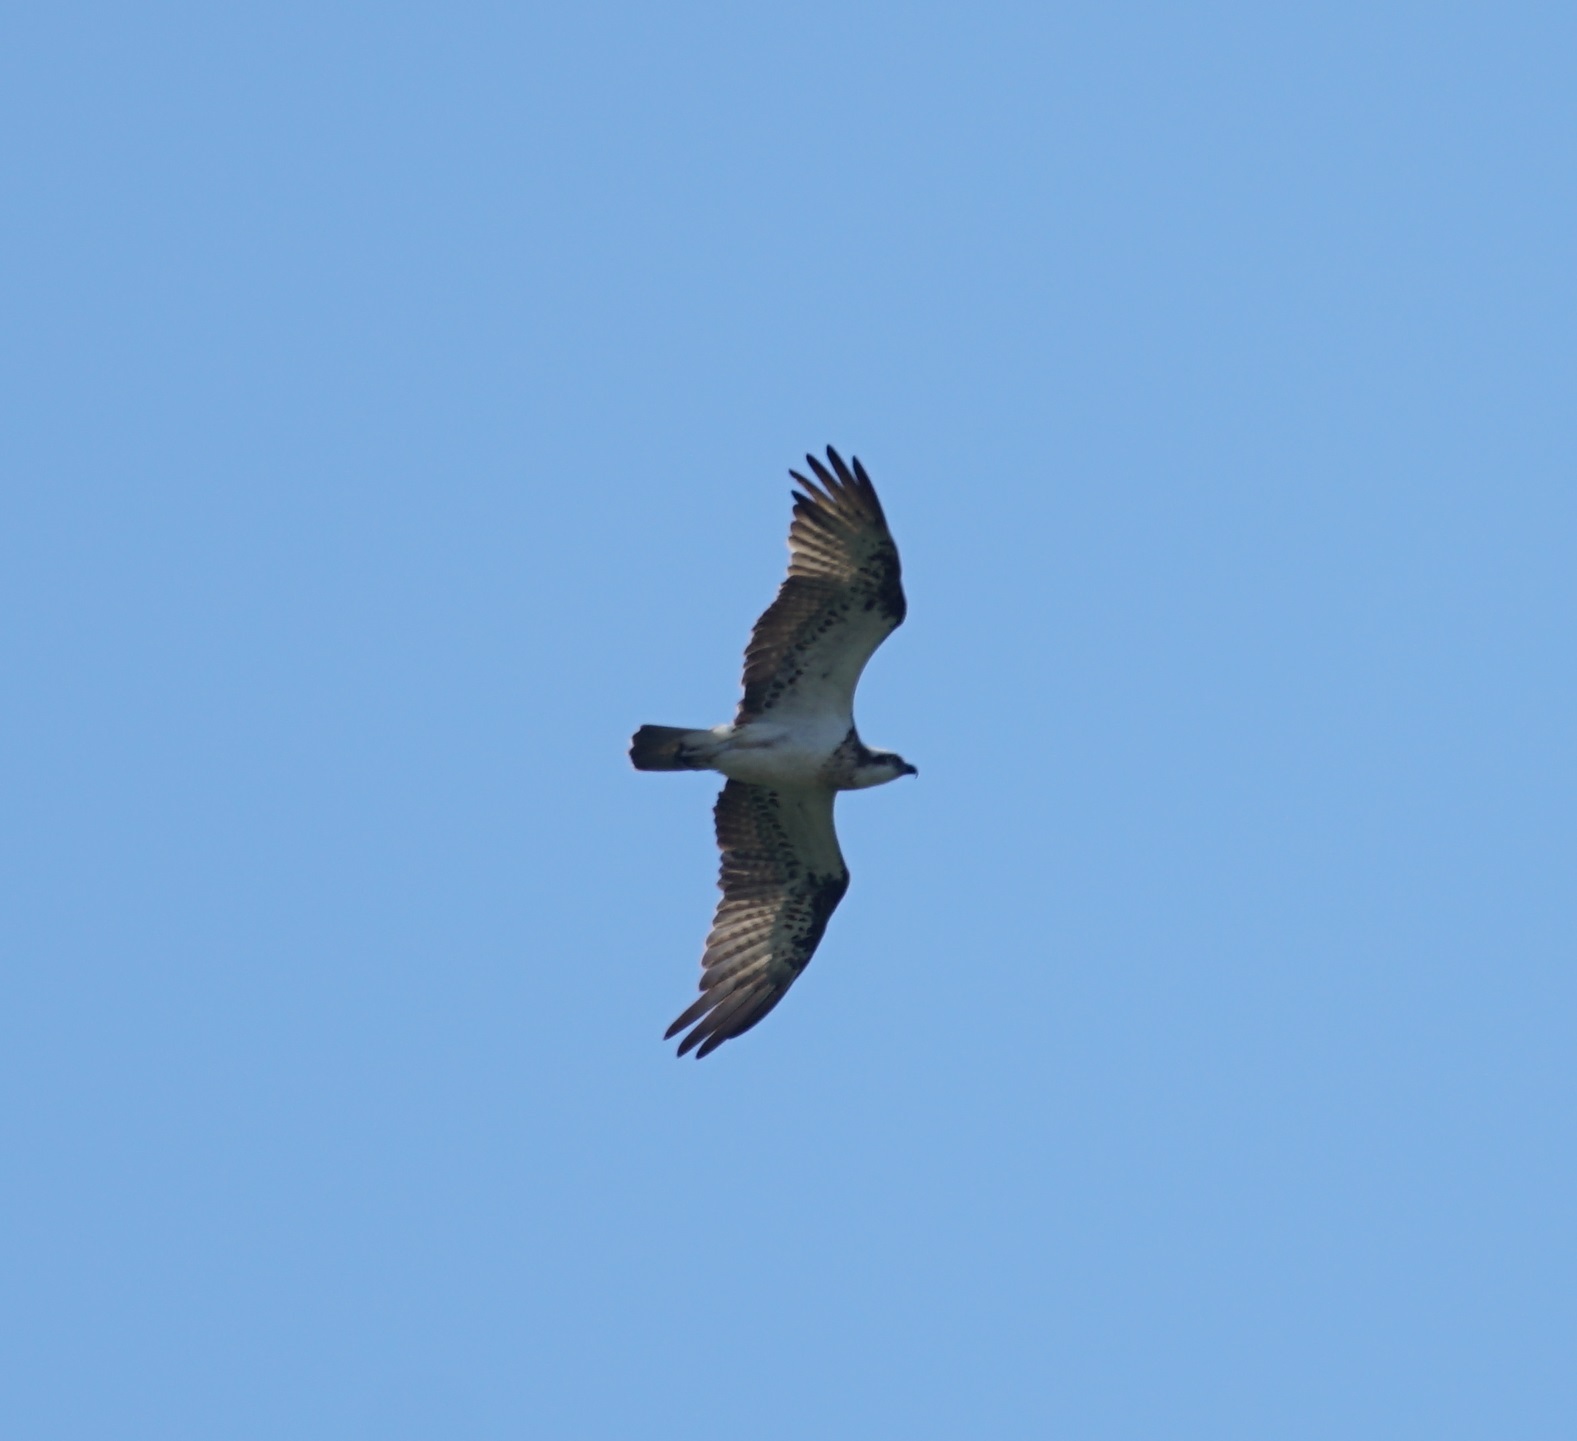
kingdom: Animalia
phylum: Chordata
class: Aves
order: Accipitriformes
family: Pandionidae
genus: Pandion
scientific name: Pandion haliaetus
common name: Osprey
